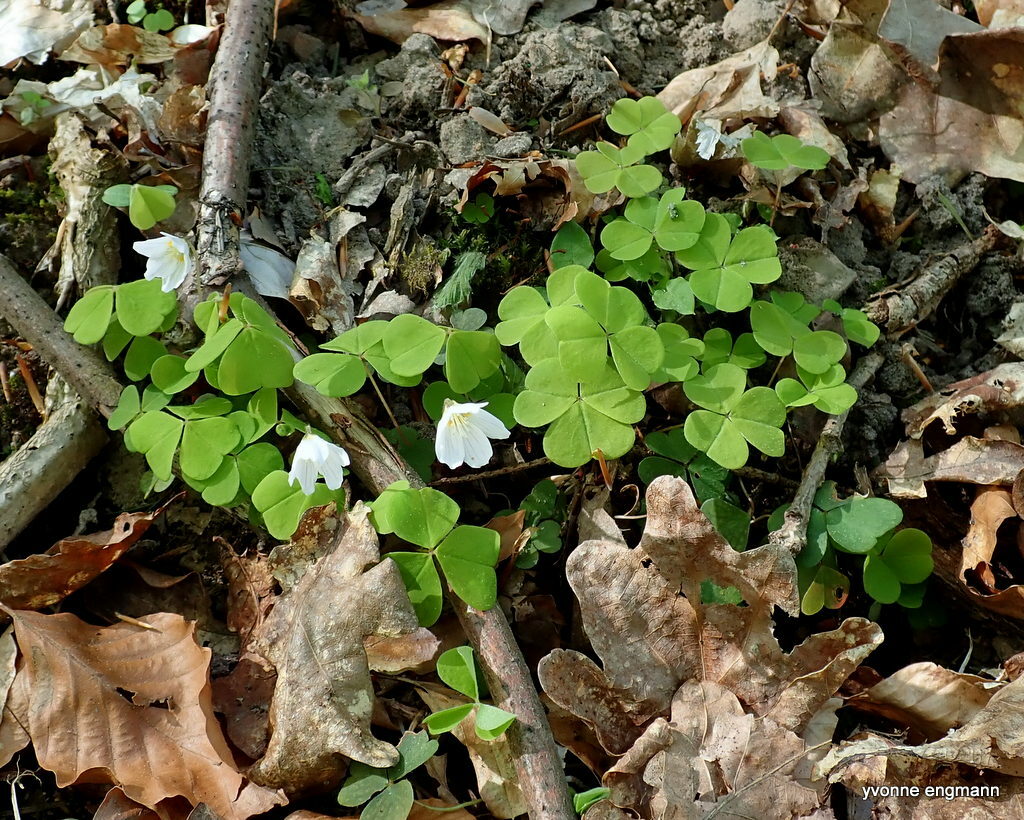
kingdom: Plantae
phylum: Tracheophyta
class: Magnoliopsida
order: Oxalidales
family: Oxalidaceae
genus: Oxalis
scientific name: Oxalis acetosella
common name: Wood-sorrel
